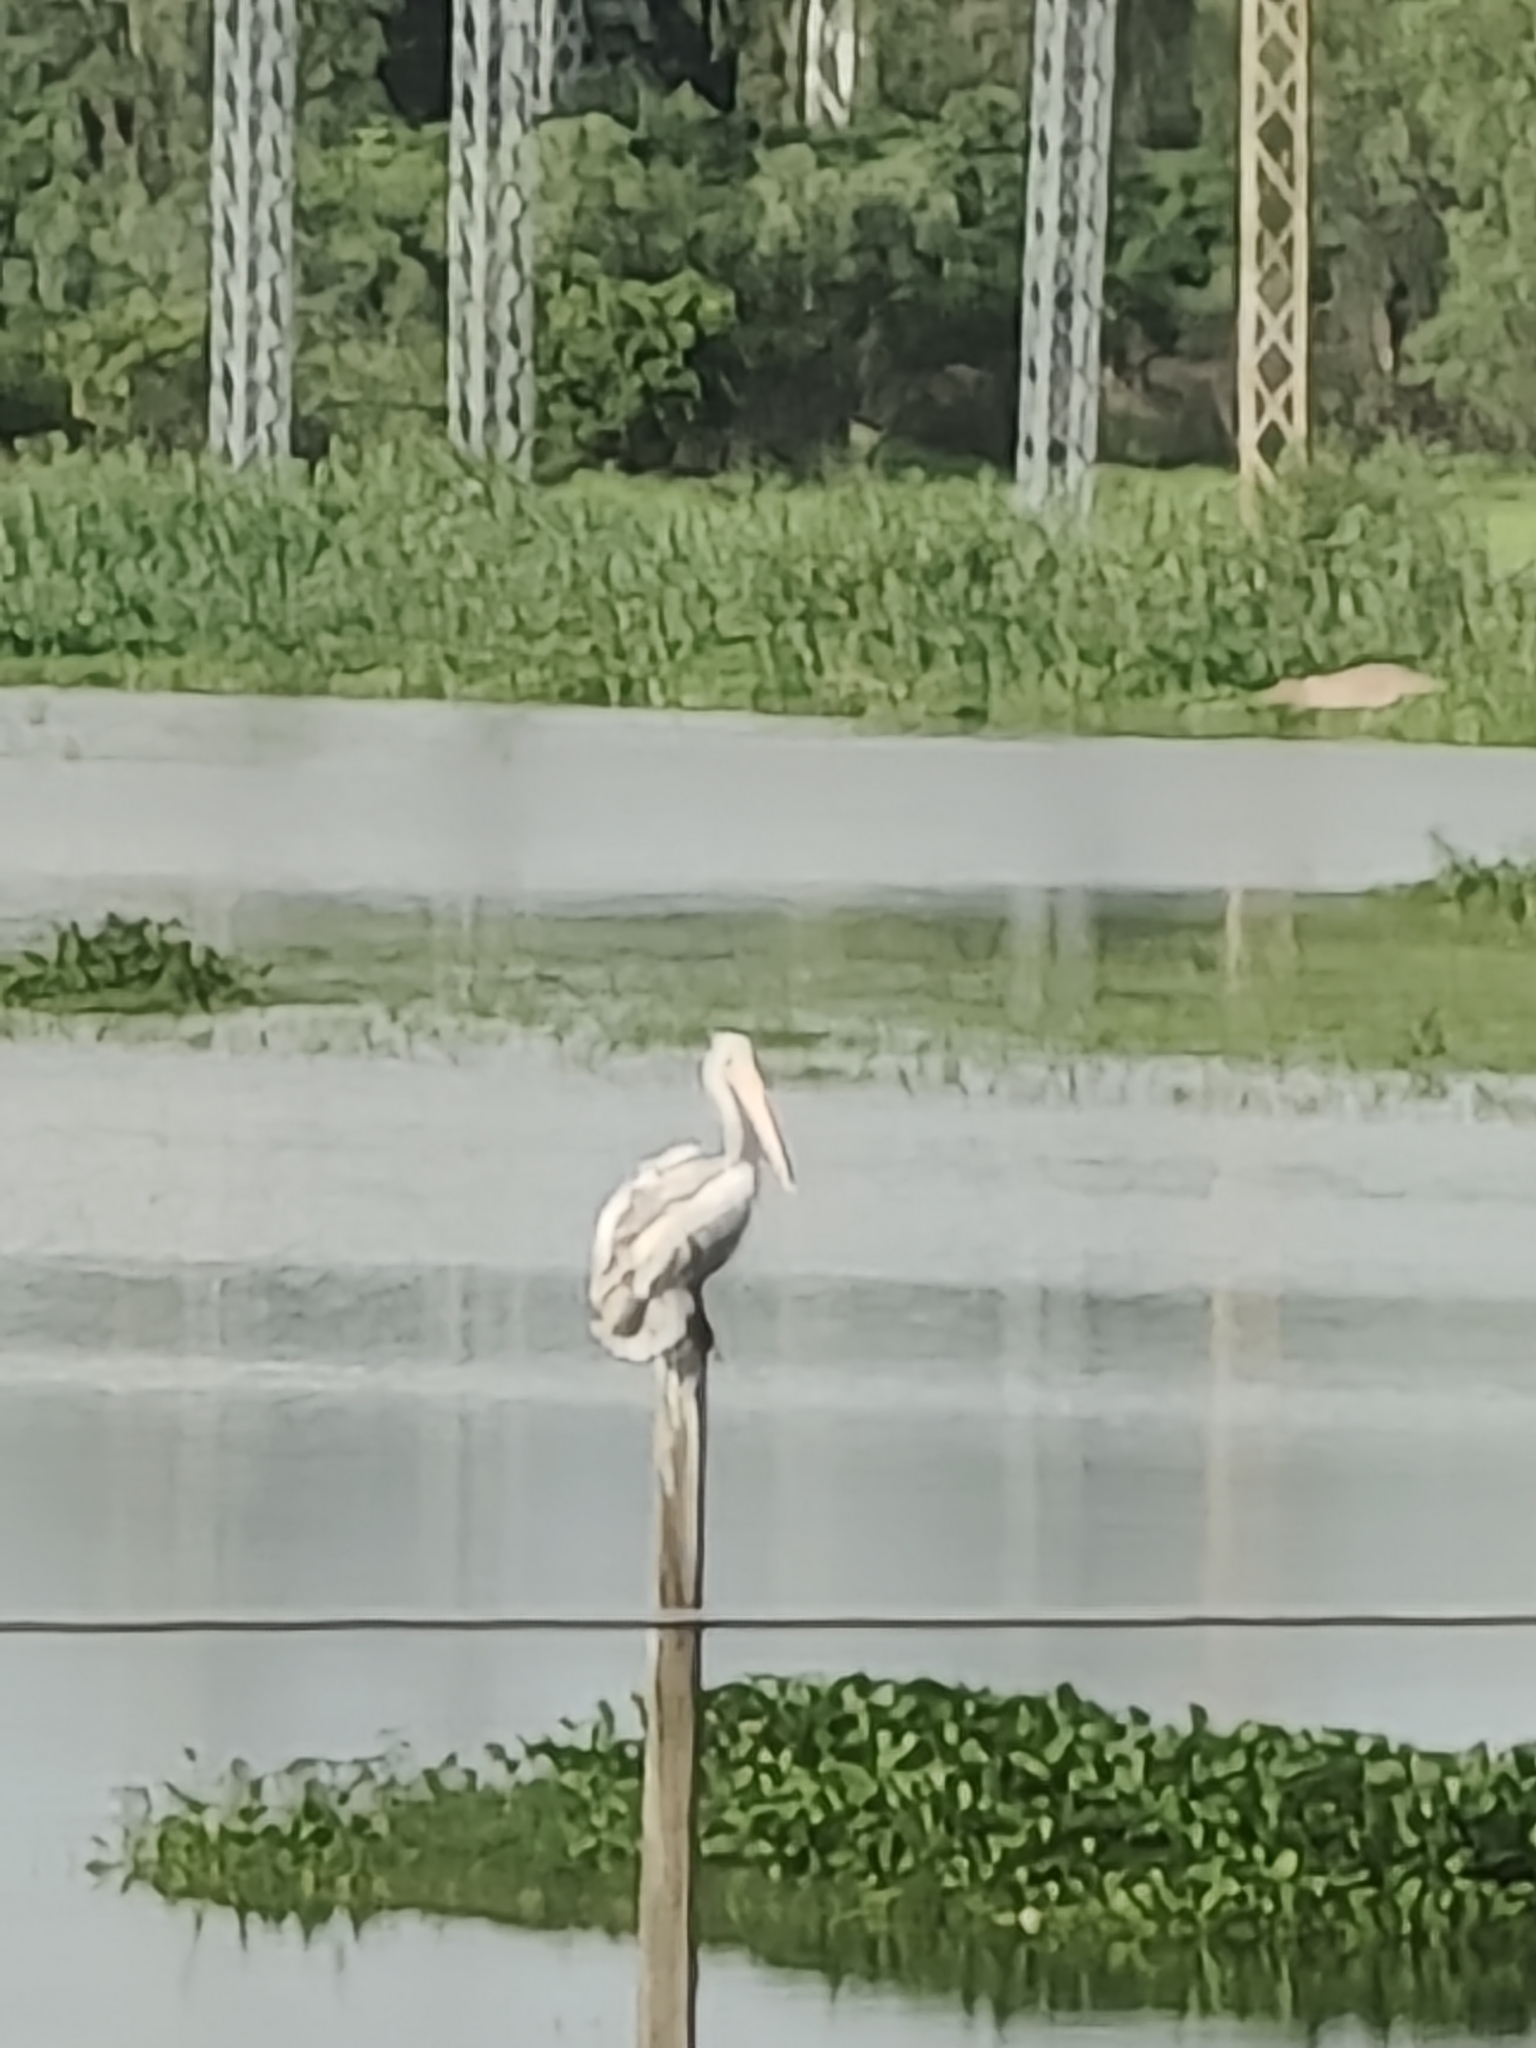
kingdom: Animalia
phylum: Chordata
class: Aves
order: Pelecaniformes
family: Pelecanidae
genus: Pelecanus
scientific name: Pelecanus philippensis
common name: Spot-billed pelican
